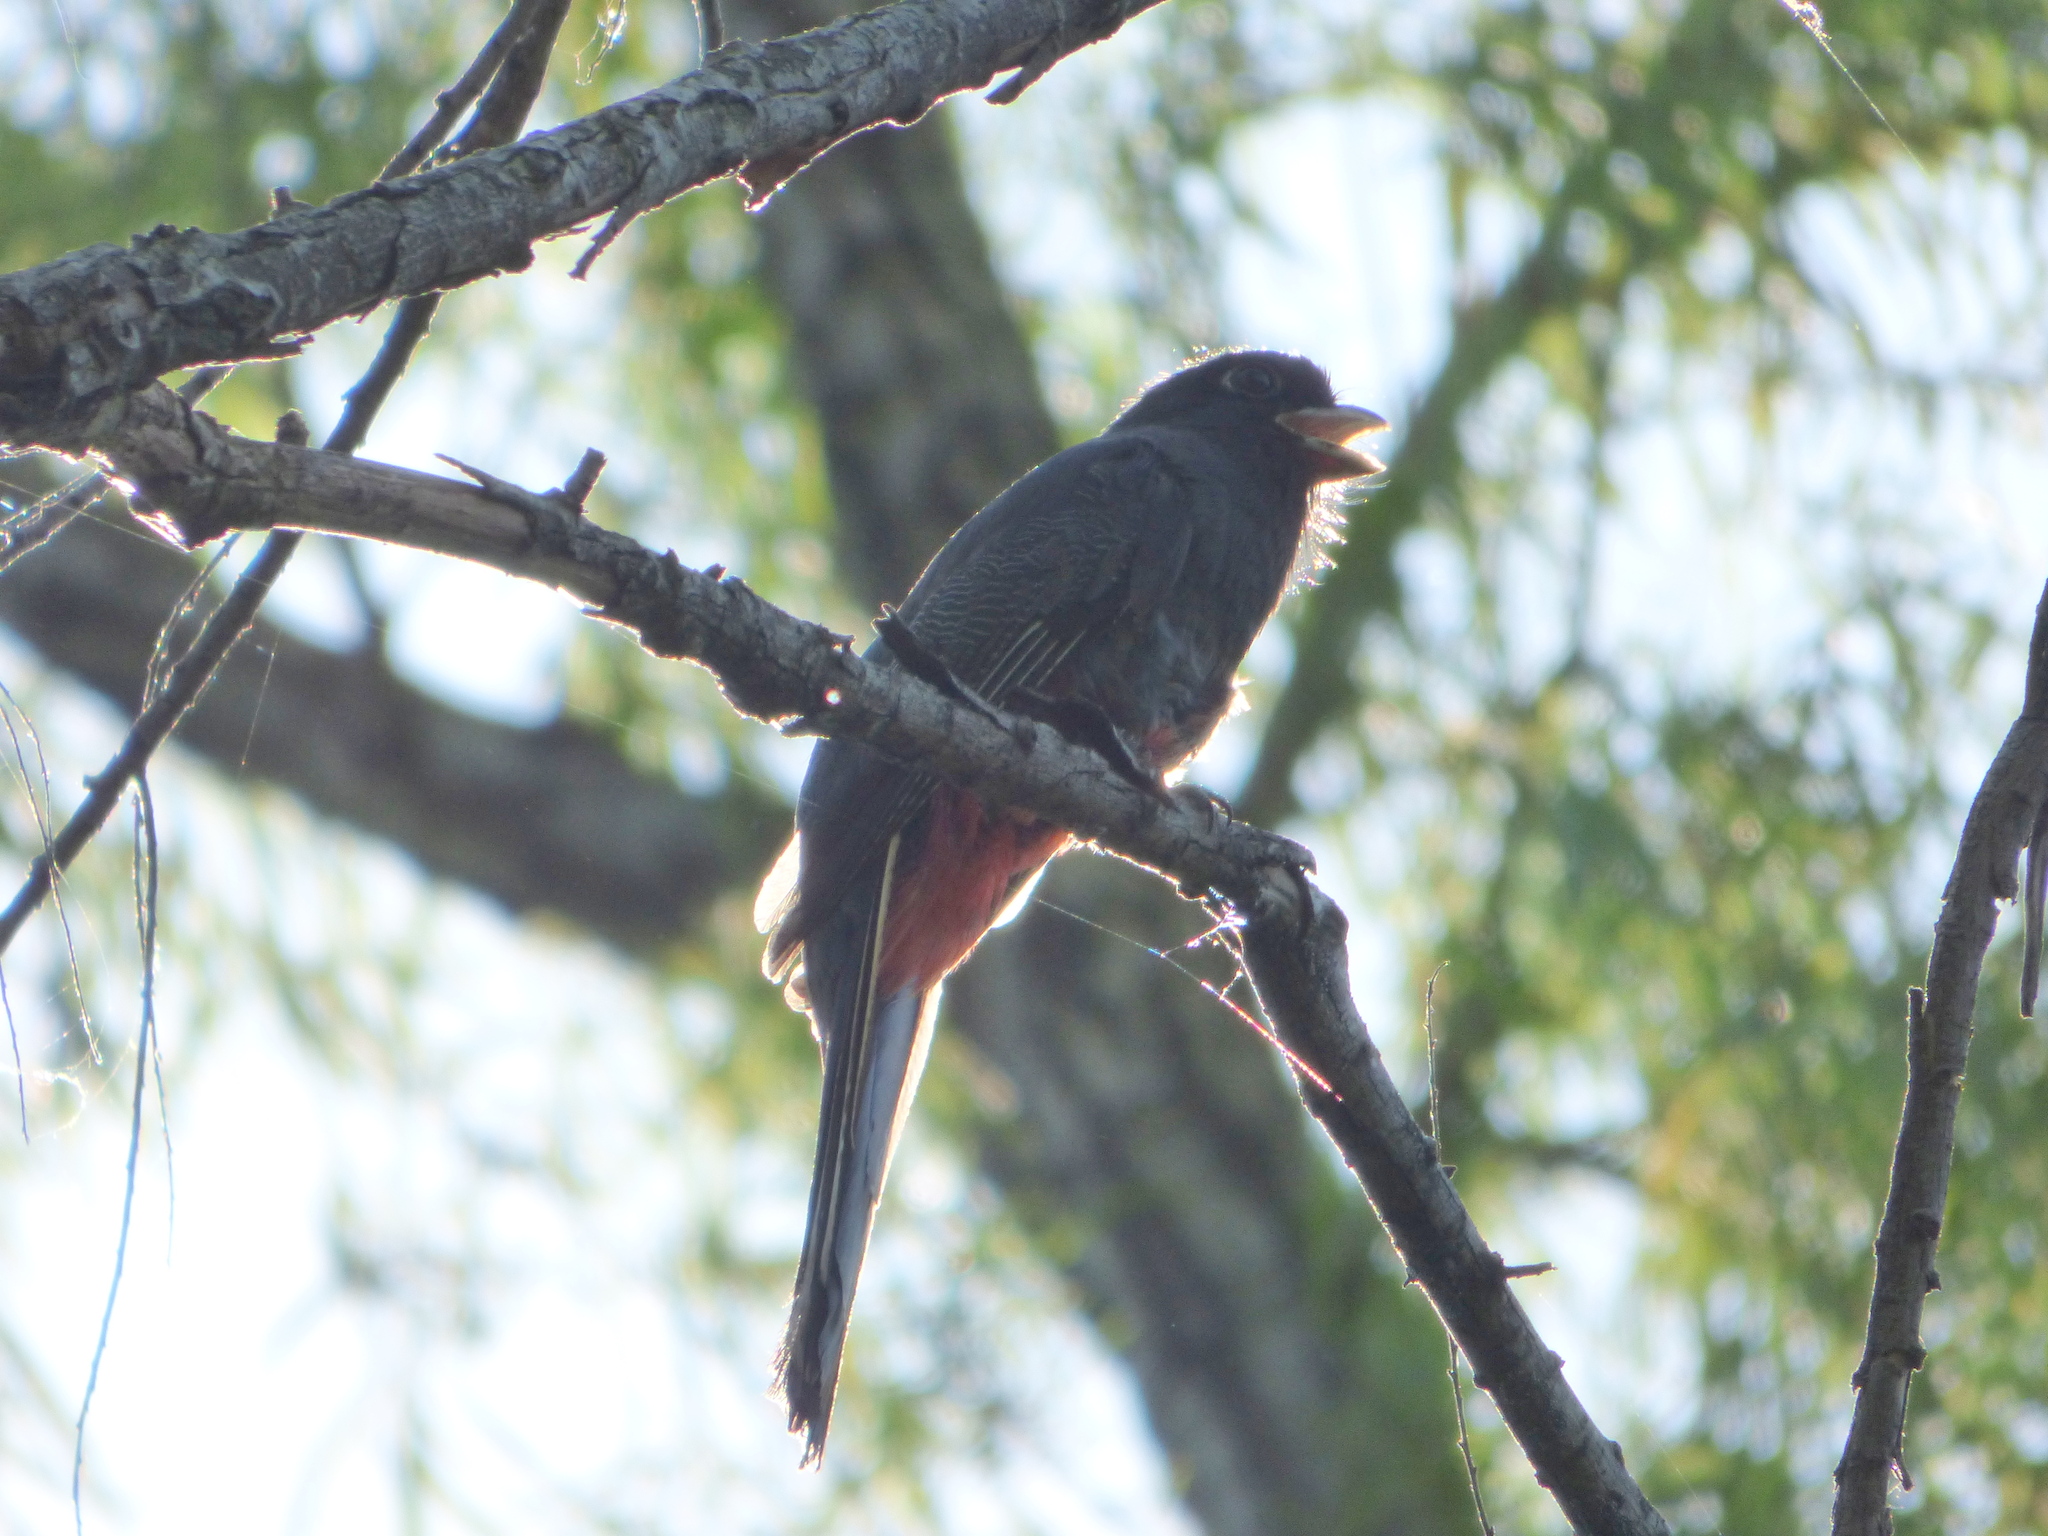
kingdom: Animalia
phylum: Chordata
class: Aves
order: Trogoniformes
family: Trogonidae
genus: Trogon
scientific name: Trogon surrucura
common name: Surucua trogon
